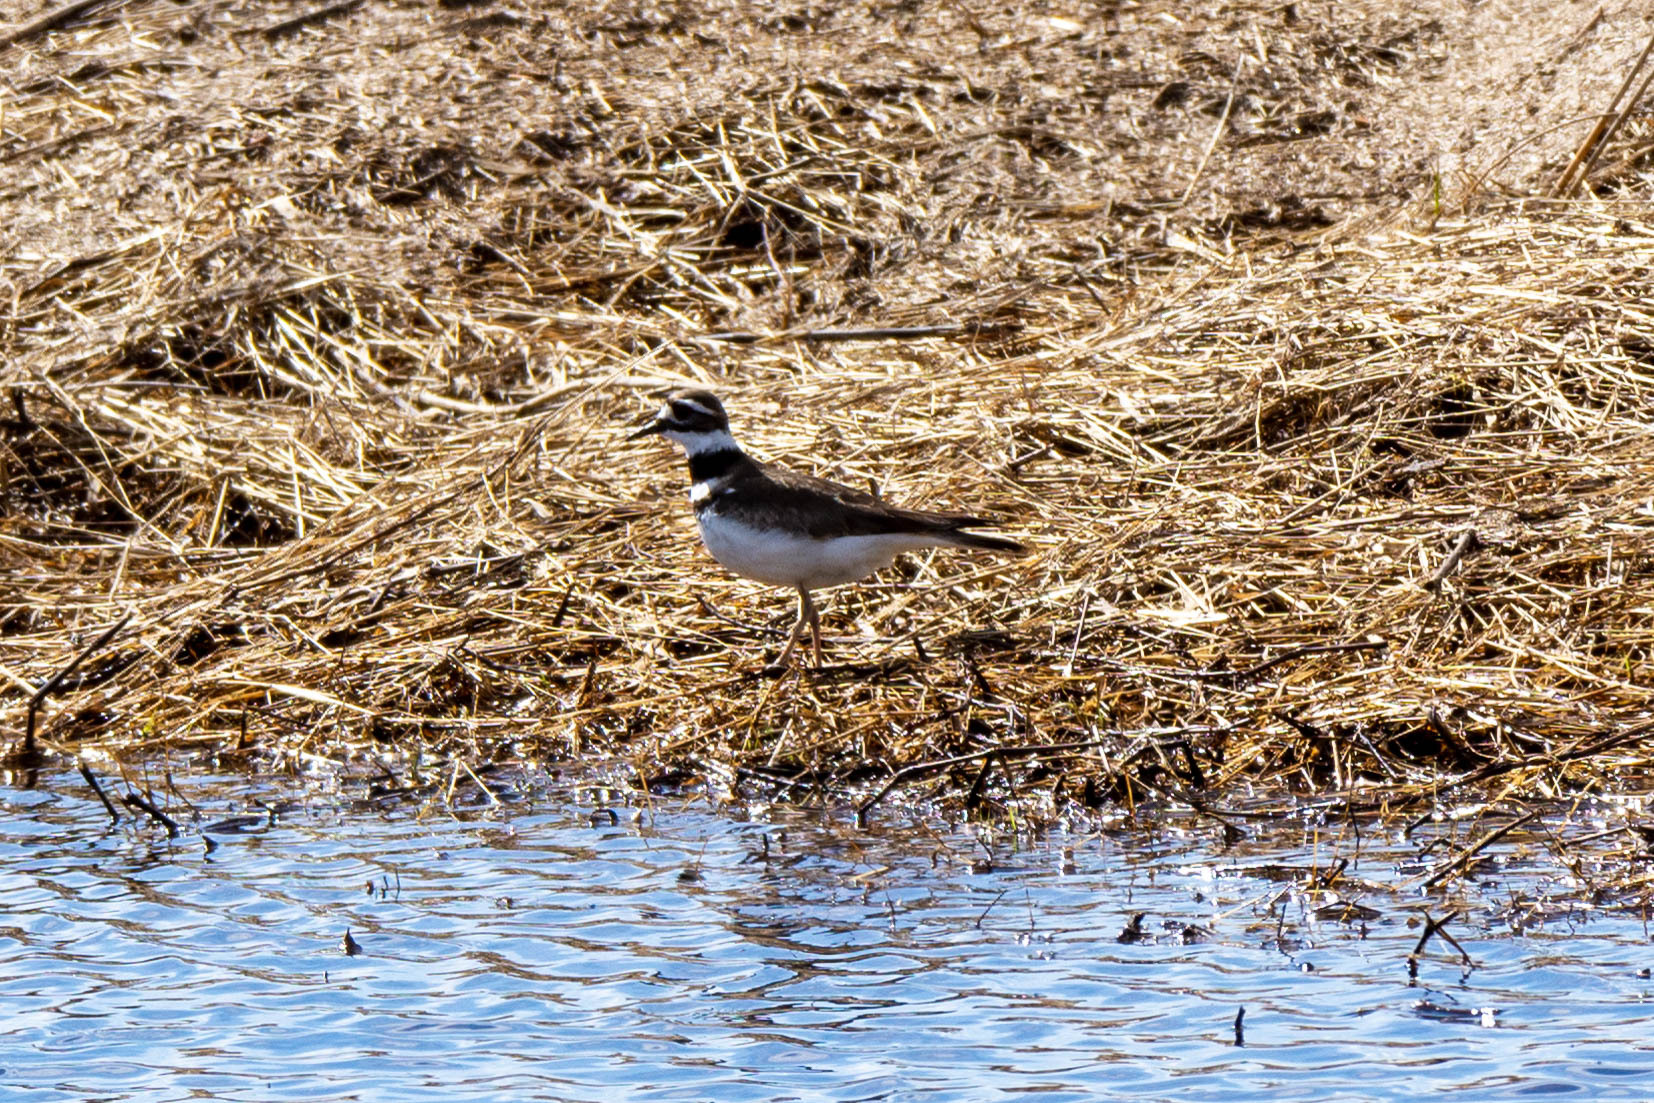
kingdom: Animalia
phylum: Chordata
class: Aves
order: Charadriiformes
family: Charadriidae
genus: Charadrius
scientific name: Charadrius vociferus
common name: Killdeer
